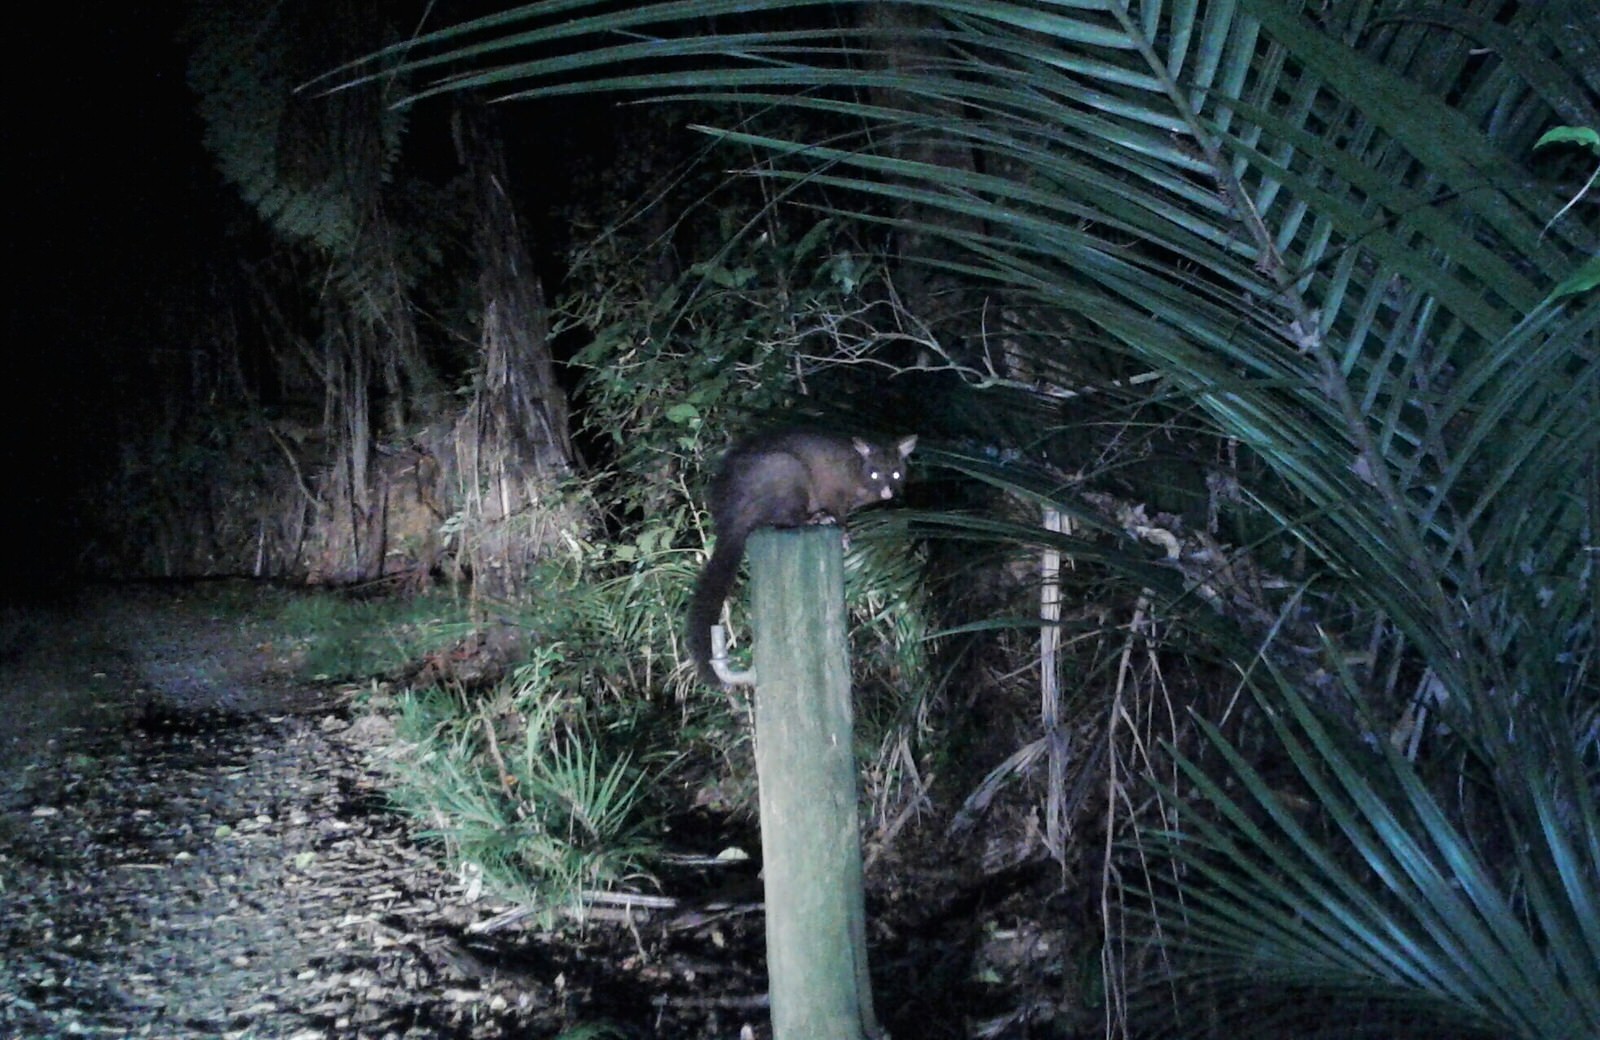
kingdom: Animalia
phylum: Chordata
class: Mammalia
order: Diprotodontia
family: Phalangeridae
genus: Trichosurus
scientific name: Trichosurus vulpecula
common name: Common brushtail
